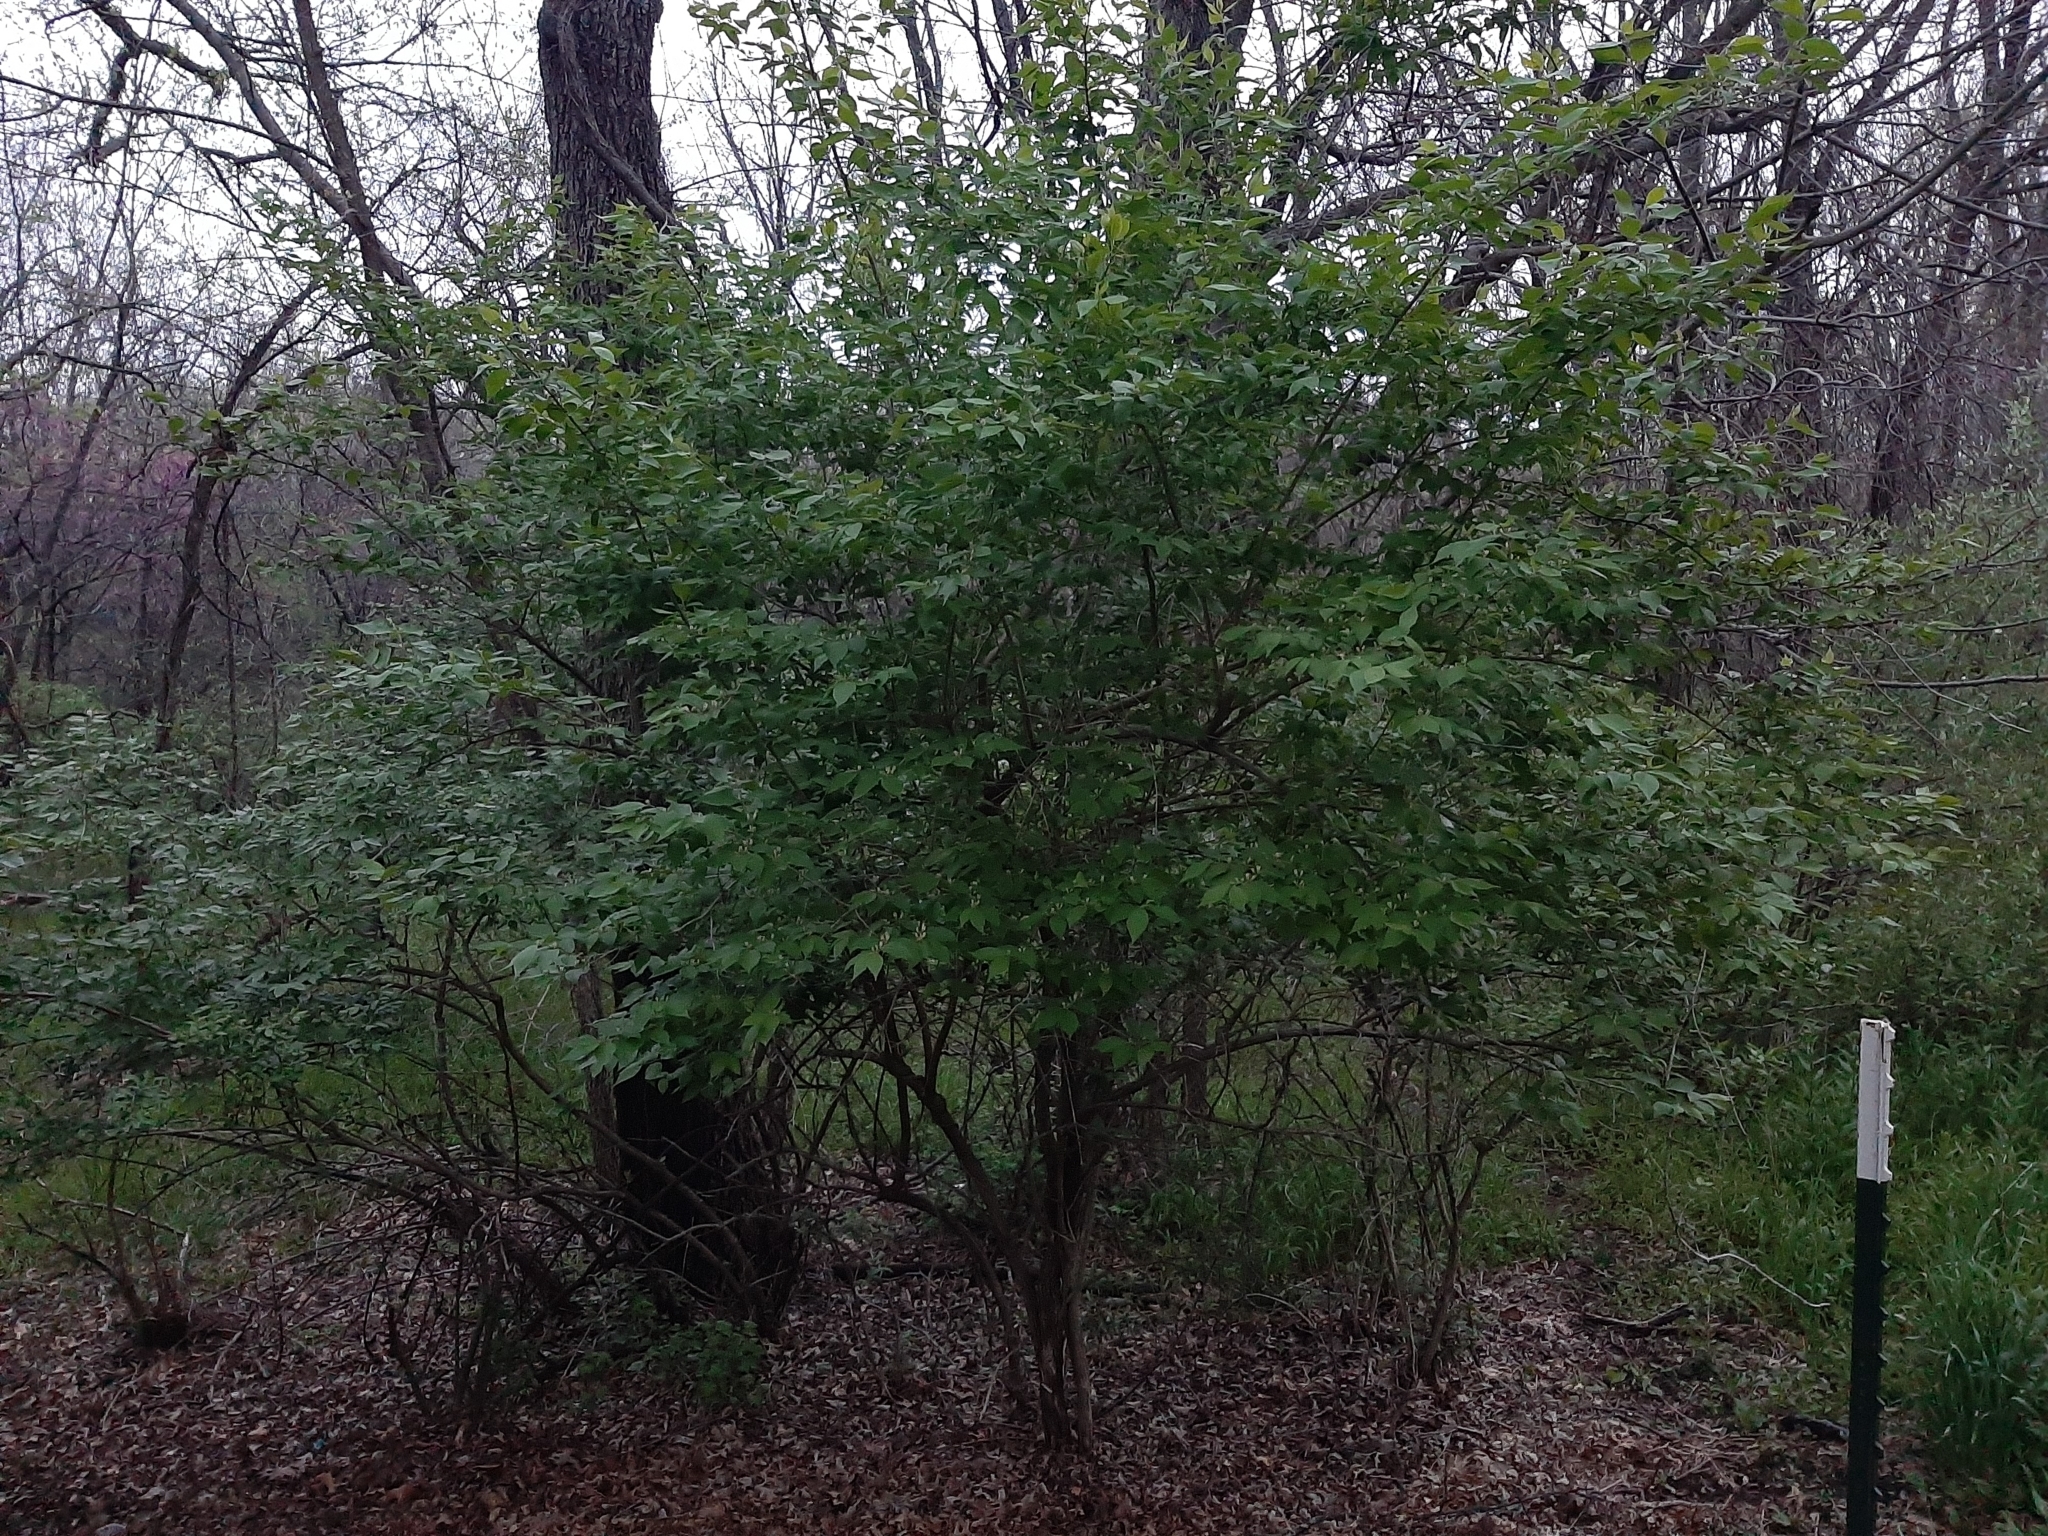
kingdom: Plantae
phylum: Tracheophyta
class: Magnoliopsida
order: Dipsacales
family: Caprifoliaceae
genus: Lonicera
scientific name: Lonicera maackii
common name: Amur honeysuckle
